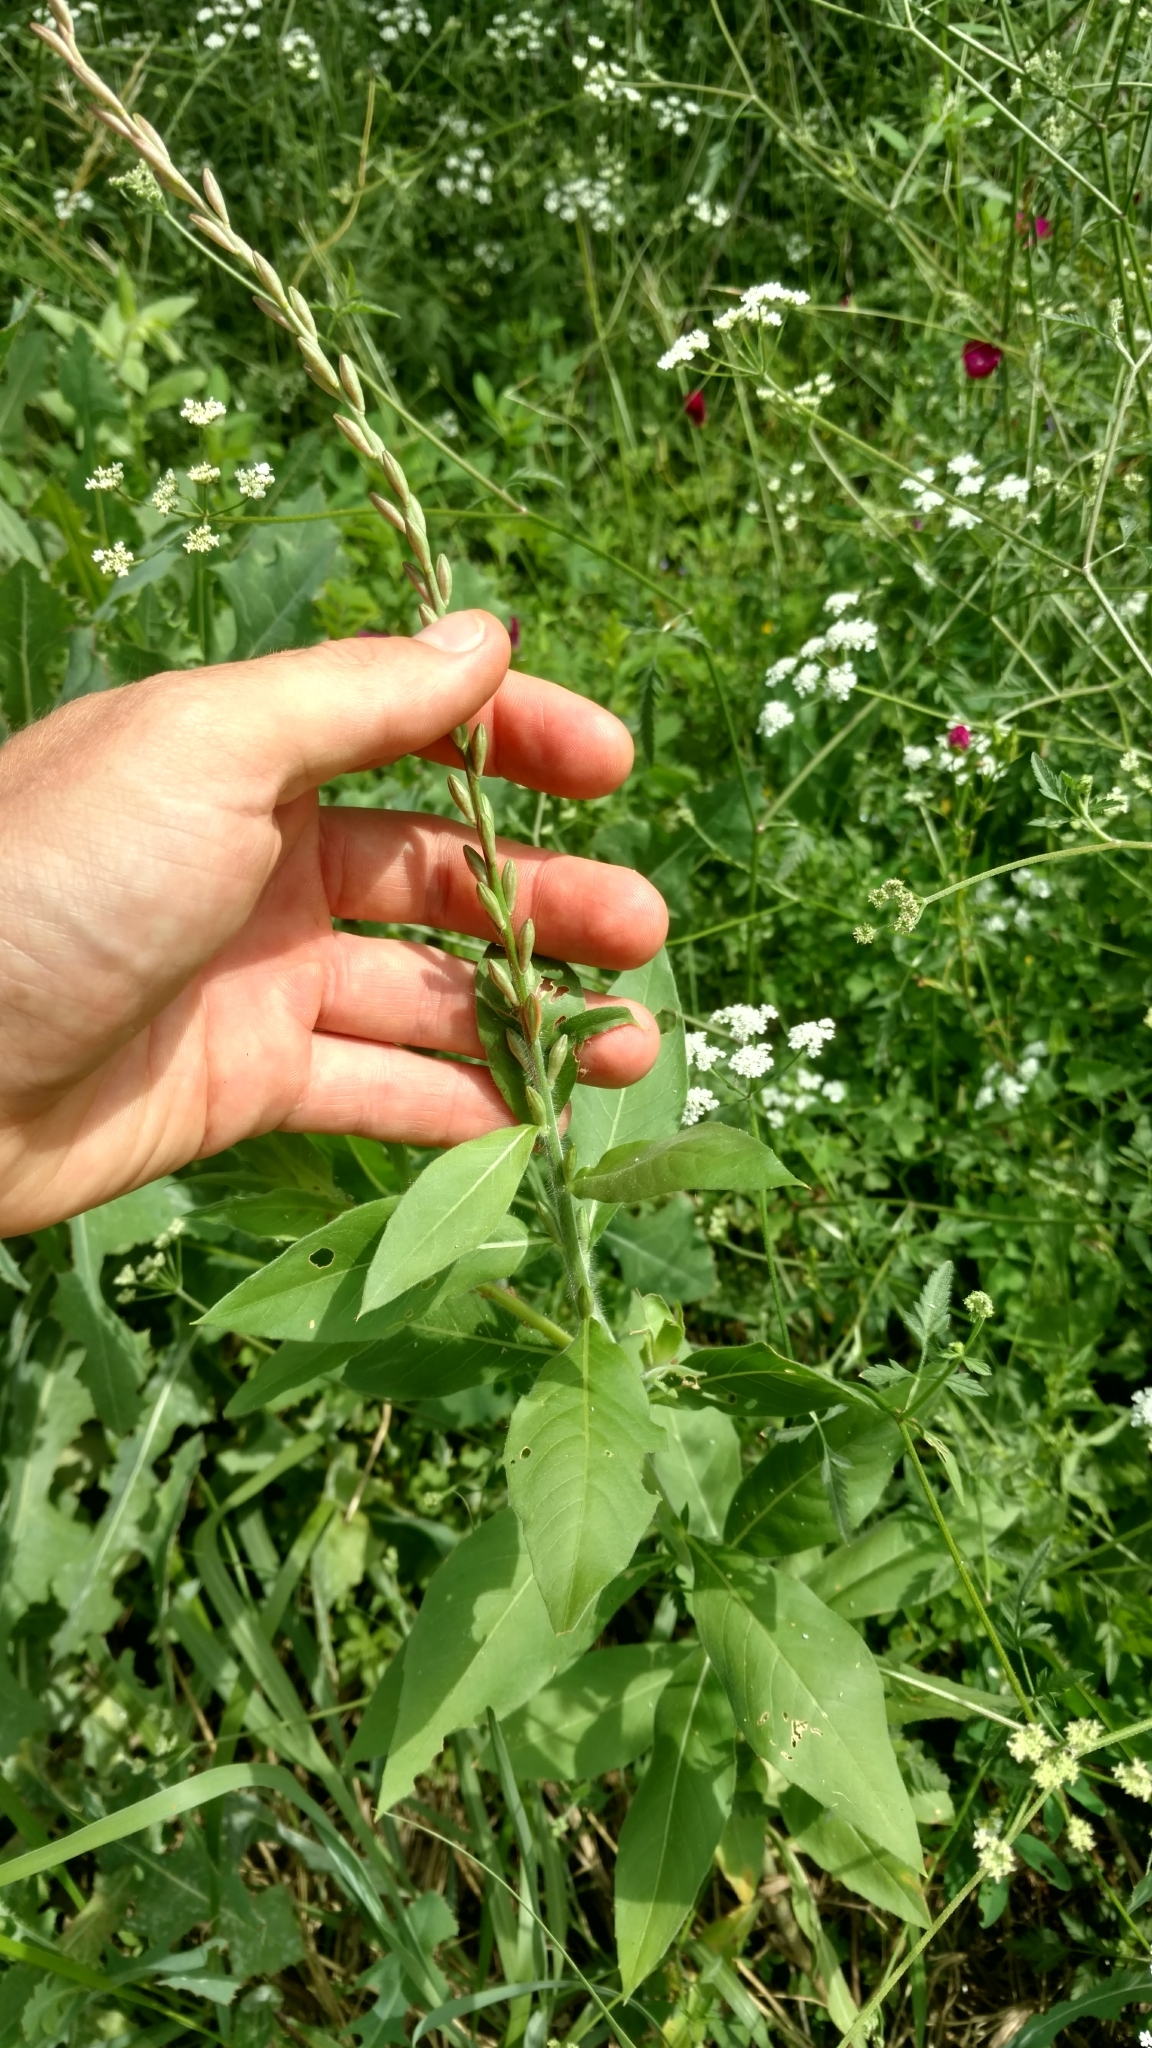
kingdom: Plantae
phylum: Tracheophyta
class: Magnoliopsida
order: Myrtales
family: Onagraceae
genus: Oenothera
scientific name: Oenothera curtiflora
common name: Velvetweed
